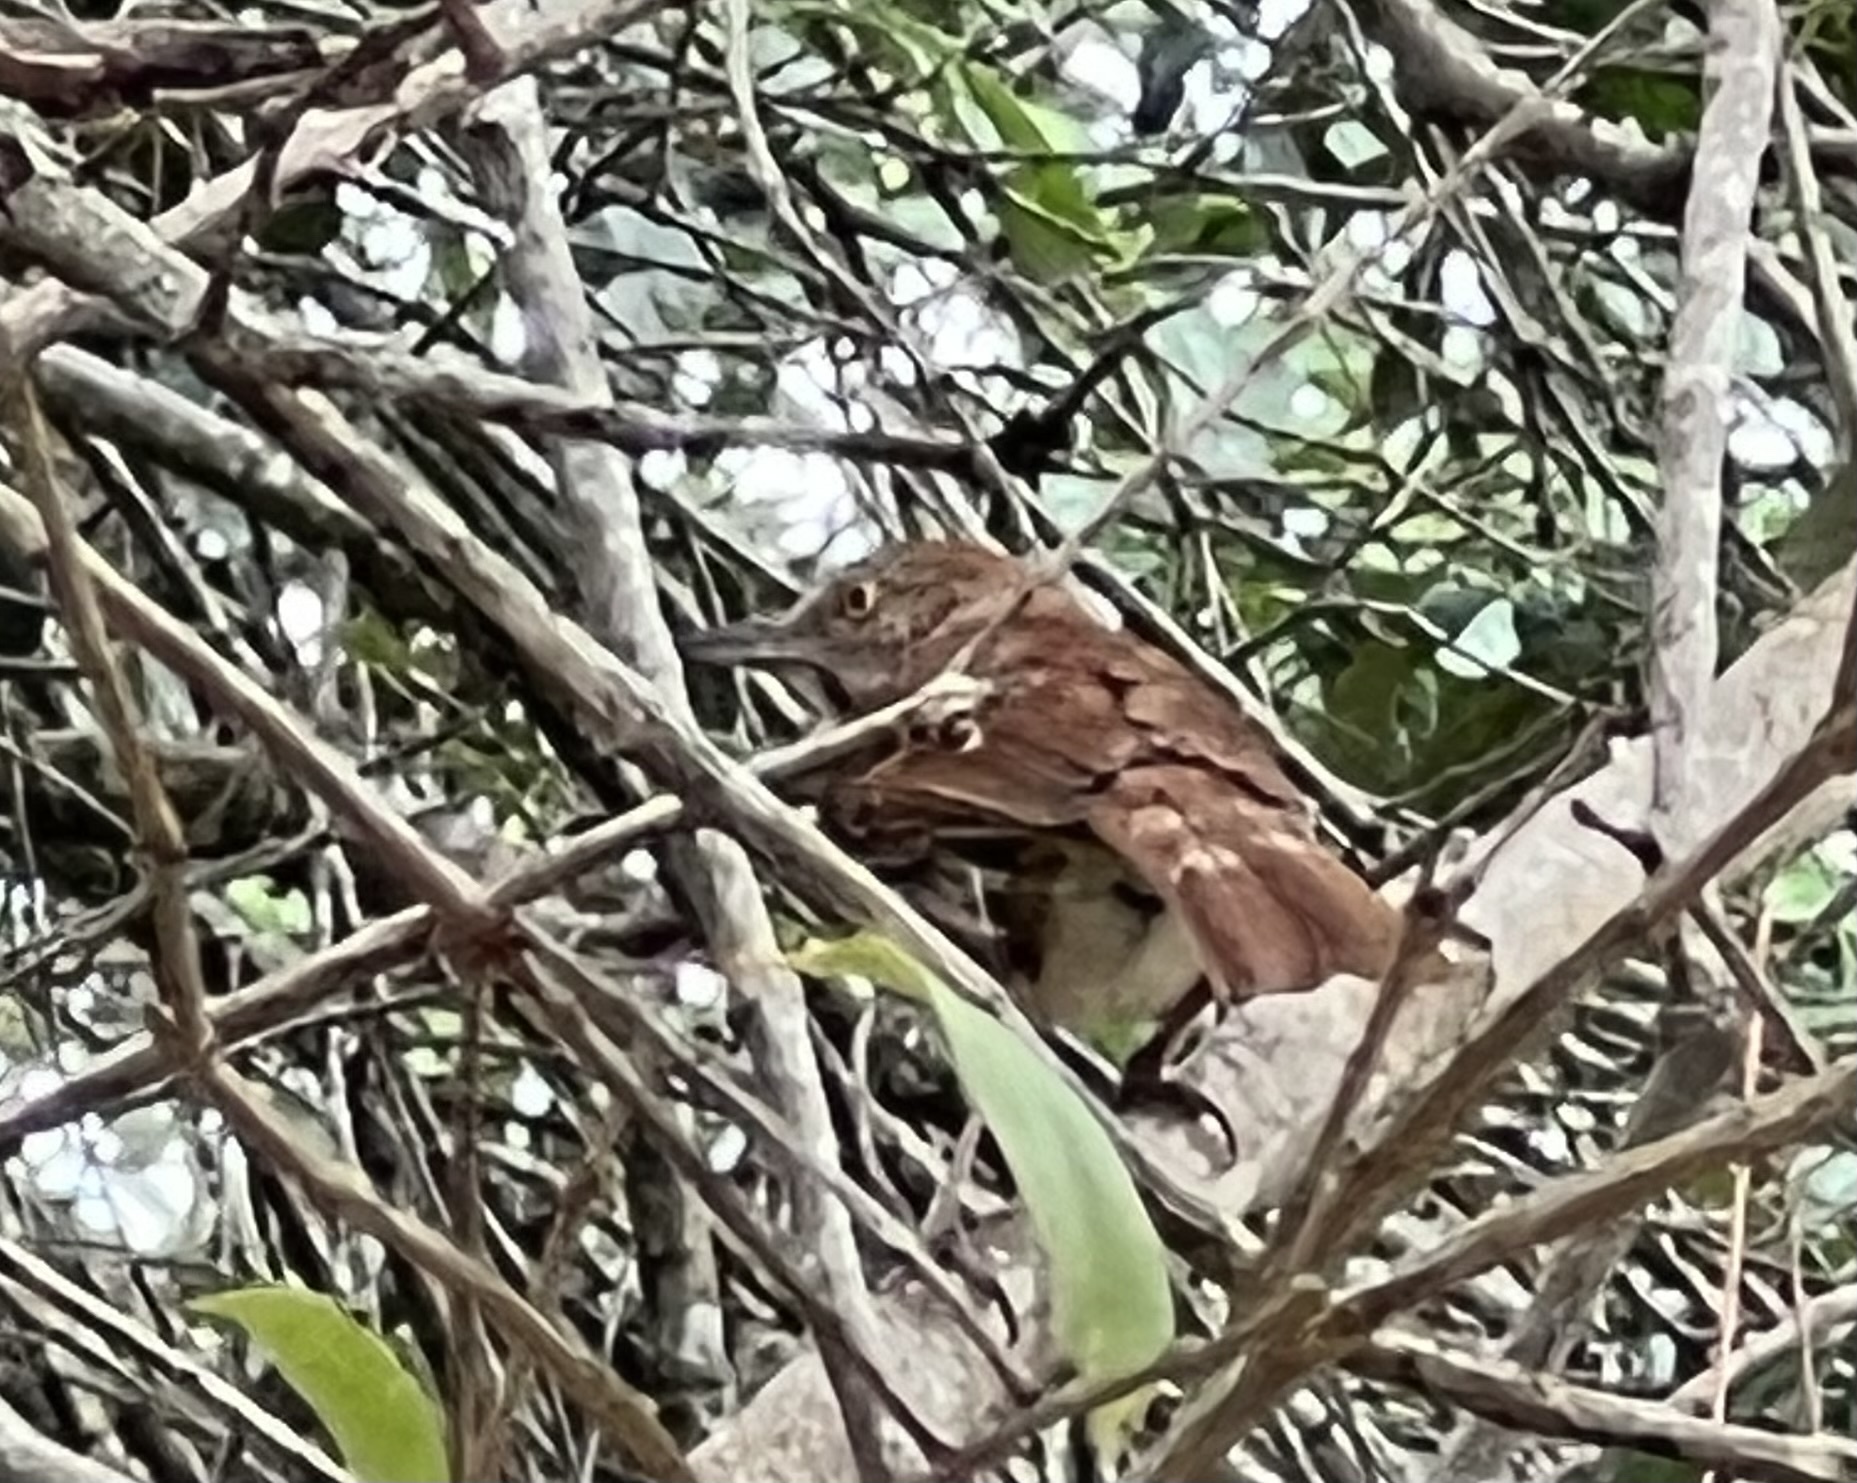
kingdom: Animalia
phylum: Chordata
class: Aves
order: Passeriformes
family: Mimidae
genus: Toxostoma
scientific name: Toxostoma rufum
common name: Brown thrasher
